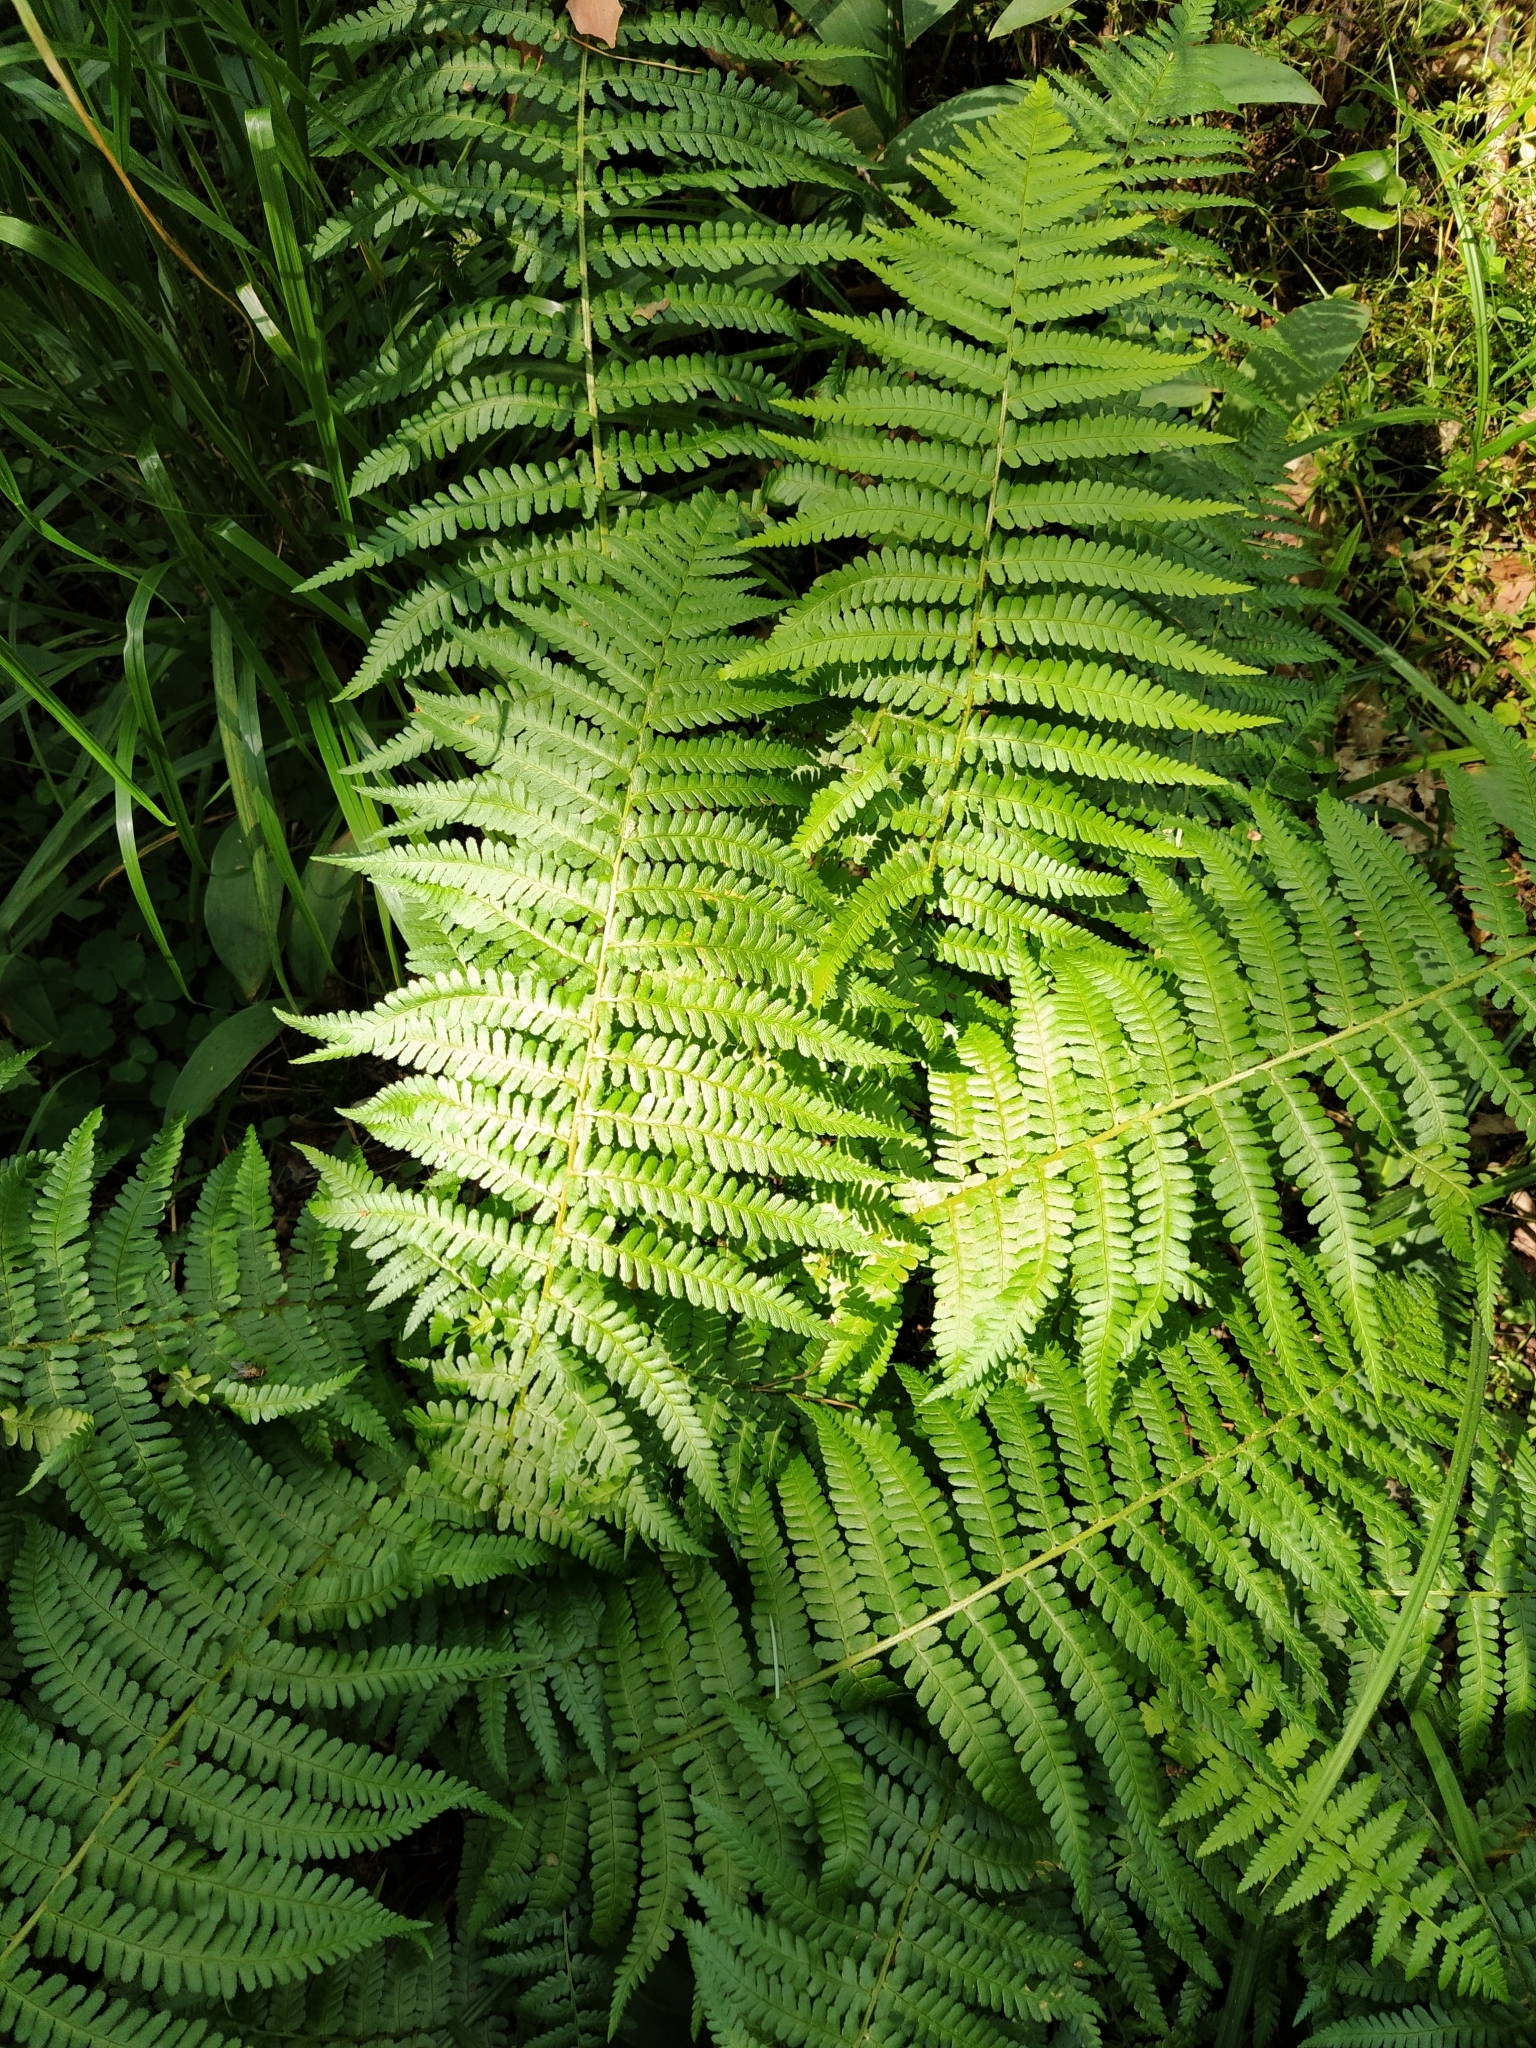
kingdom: Plantae
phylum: Tracheophyta
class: Polypodiopsida
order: Polypodiales
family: Dryopteridaceae
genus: Dryopteris
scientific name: Dryopteris filix-mas
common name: Male fern
